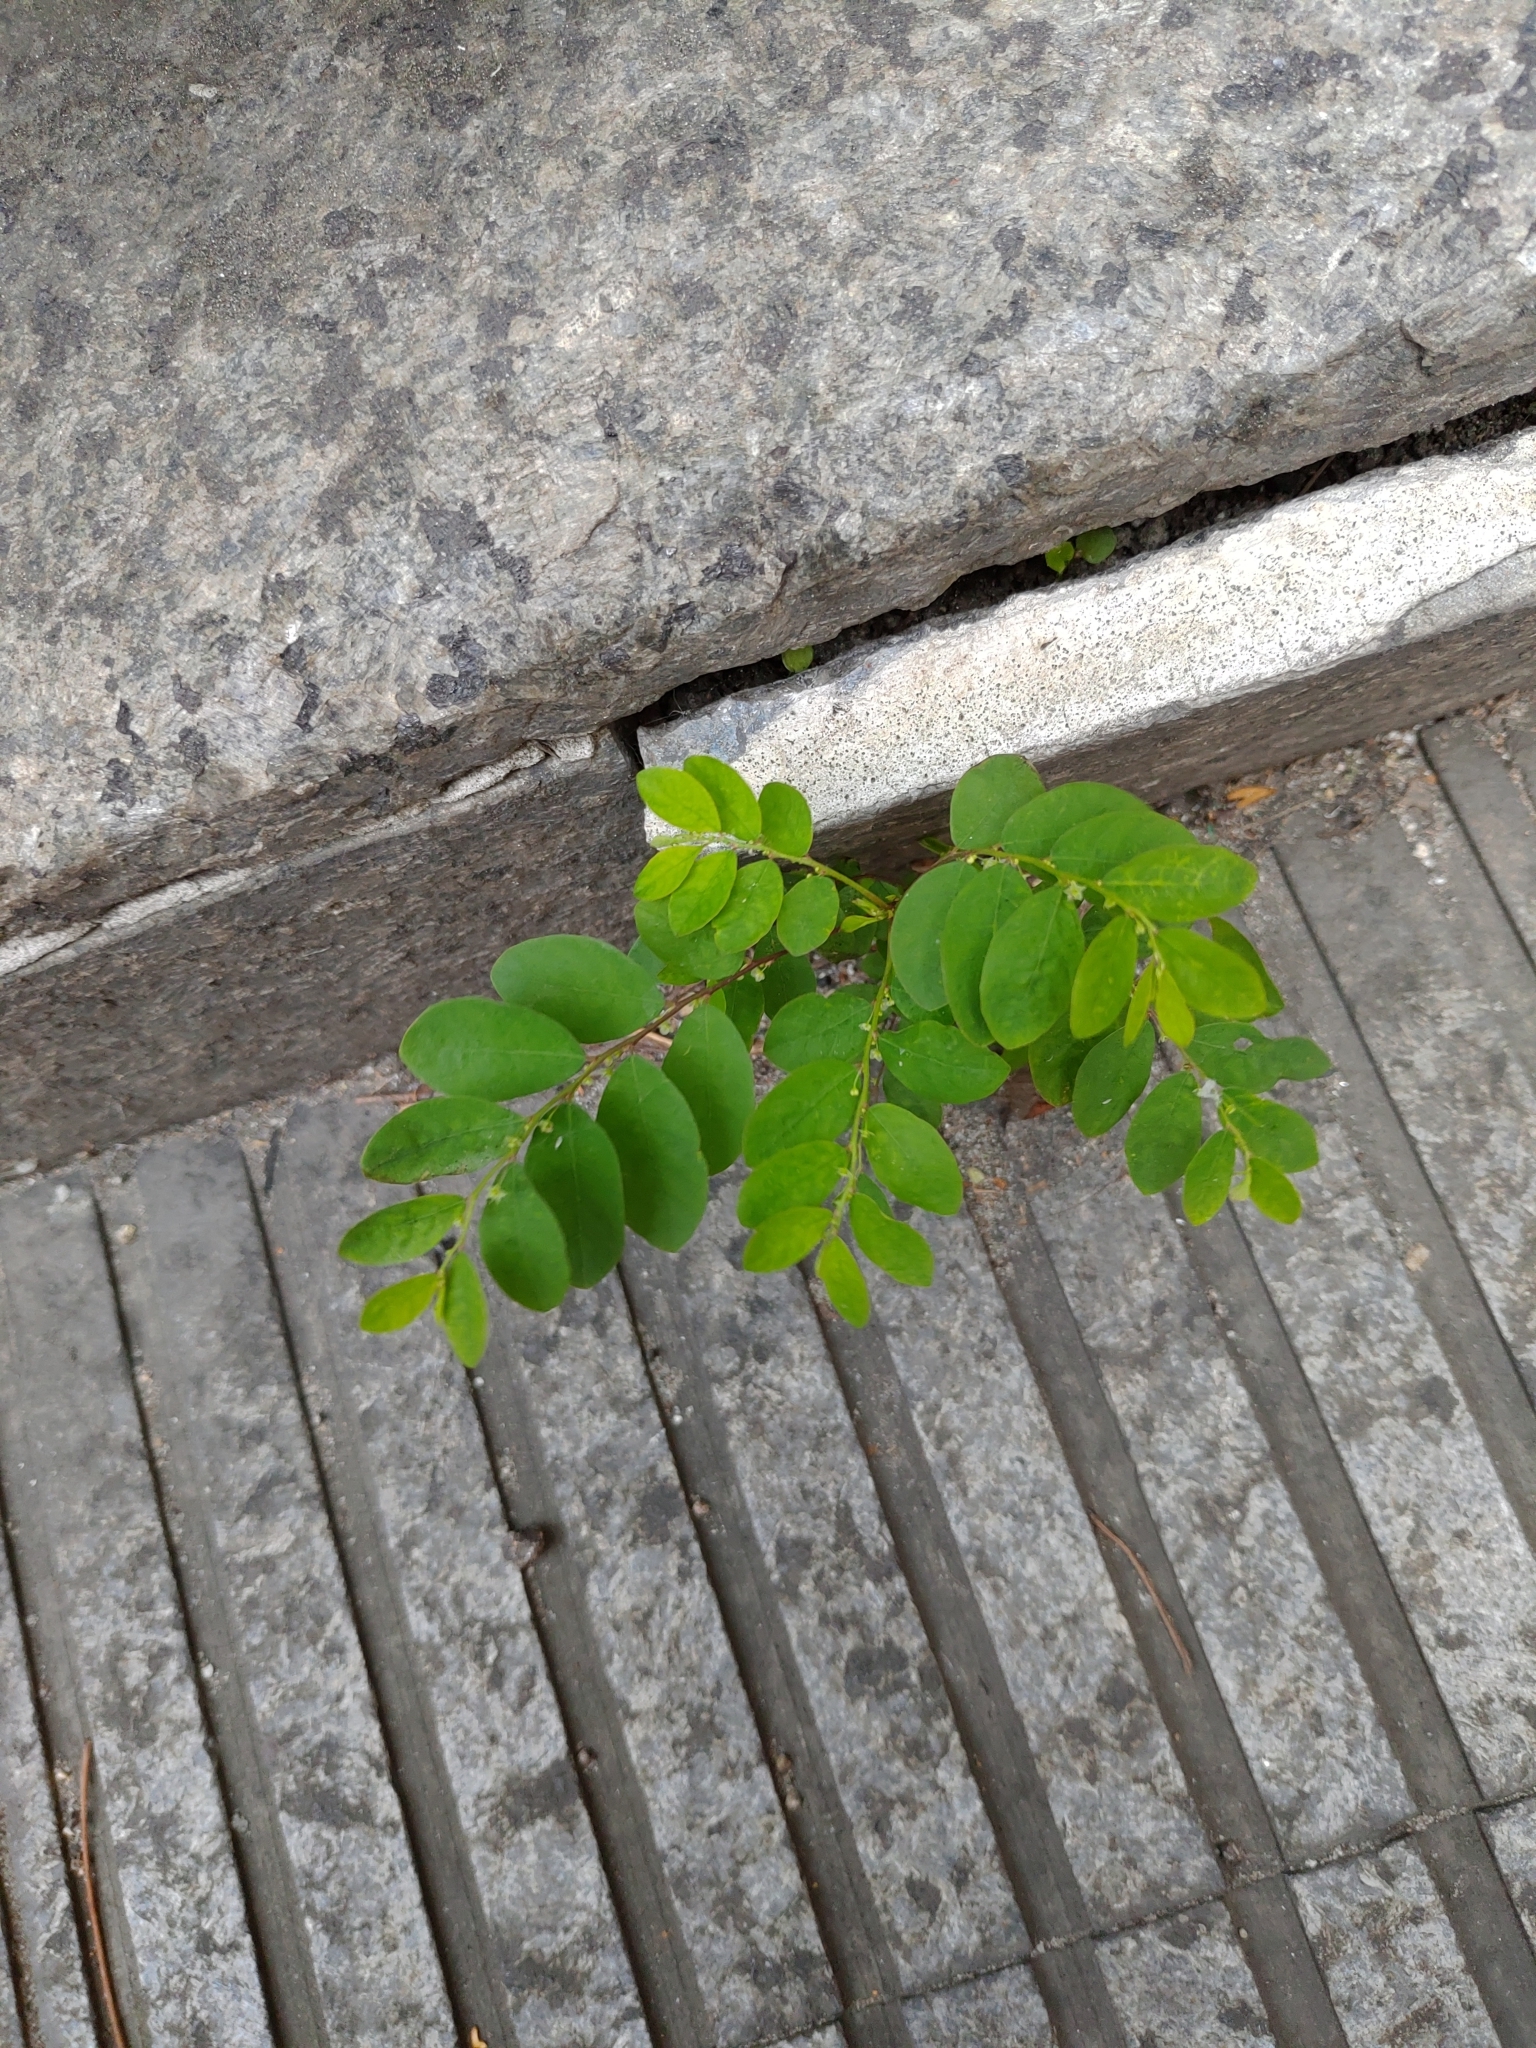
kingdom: Plantae
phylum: Tracheophyta
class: Magnoliopsida
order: Malpighiales
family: Phyllanthaceae
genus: Phyllanthus
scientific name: Phyllanthus tenellus
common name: Mascarene island leaf-flower
